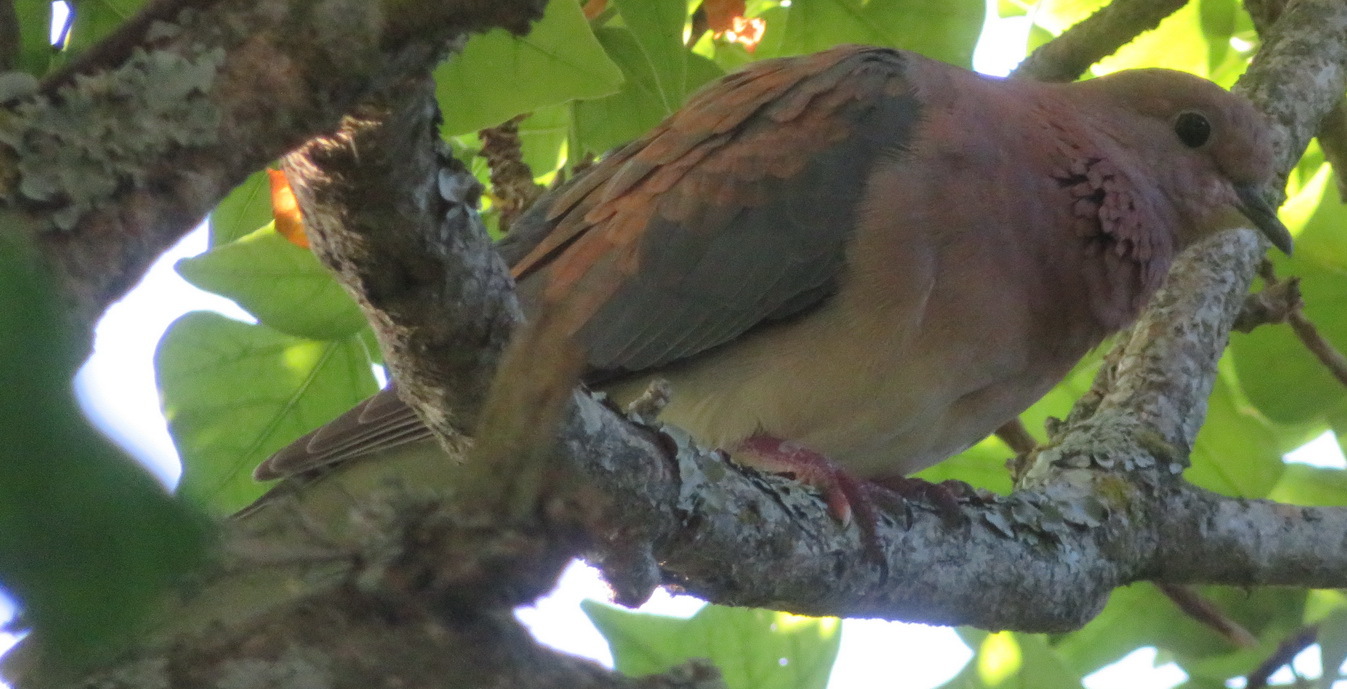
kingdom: Animalia
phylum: Chordata
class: Aves
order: Columbiformes
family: Columbidae
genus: Spilopelia
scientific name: Spilopelia senegalensis
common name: Laughing dove
